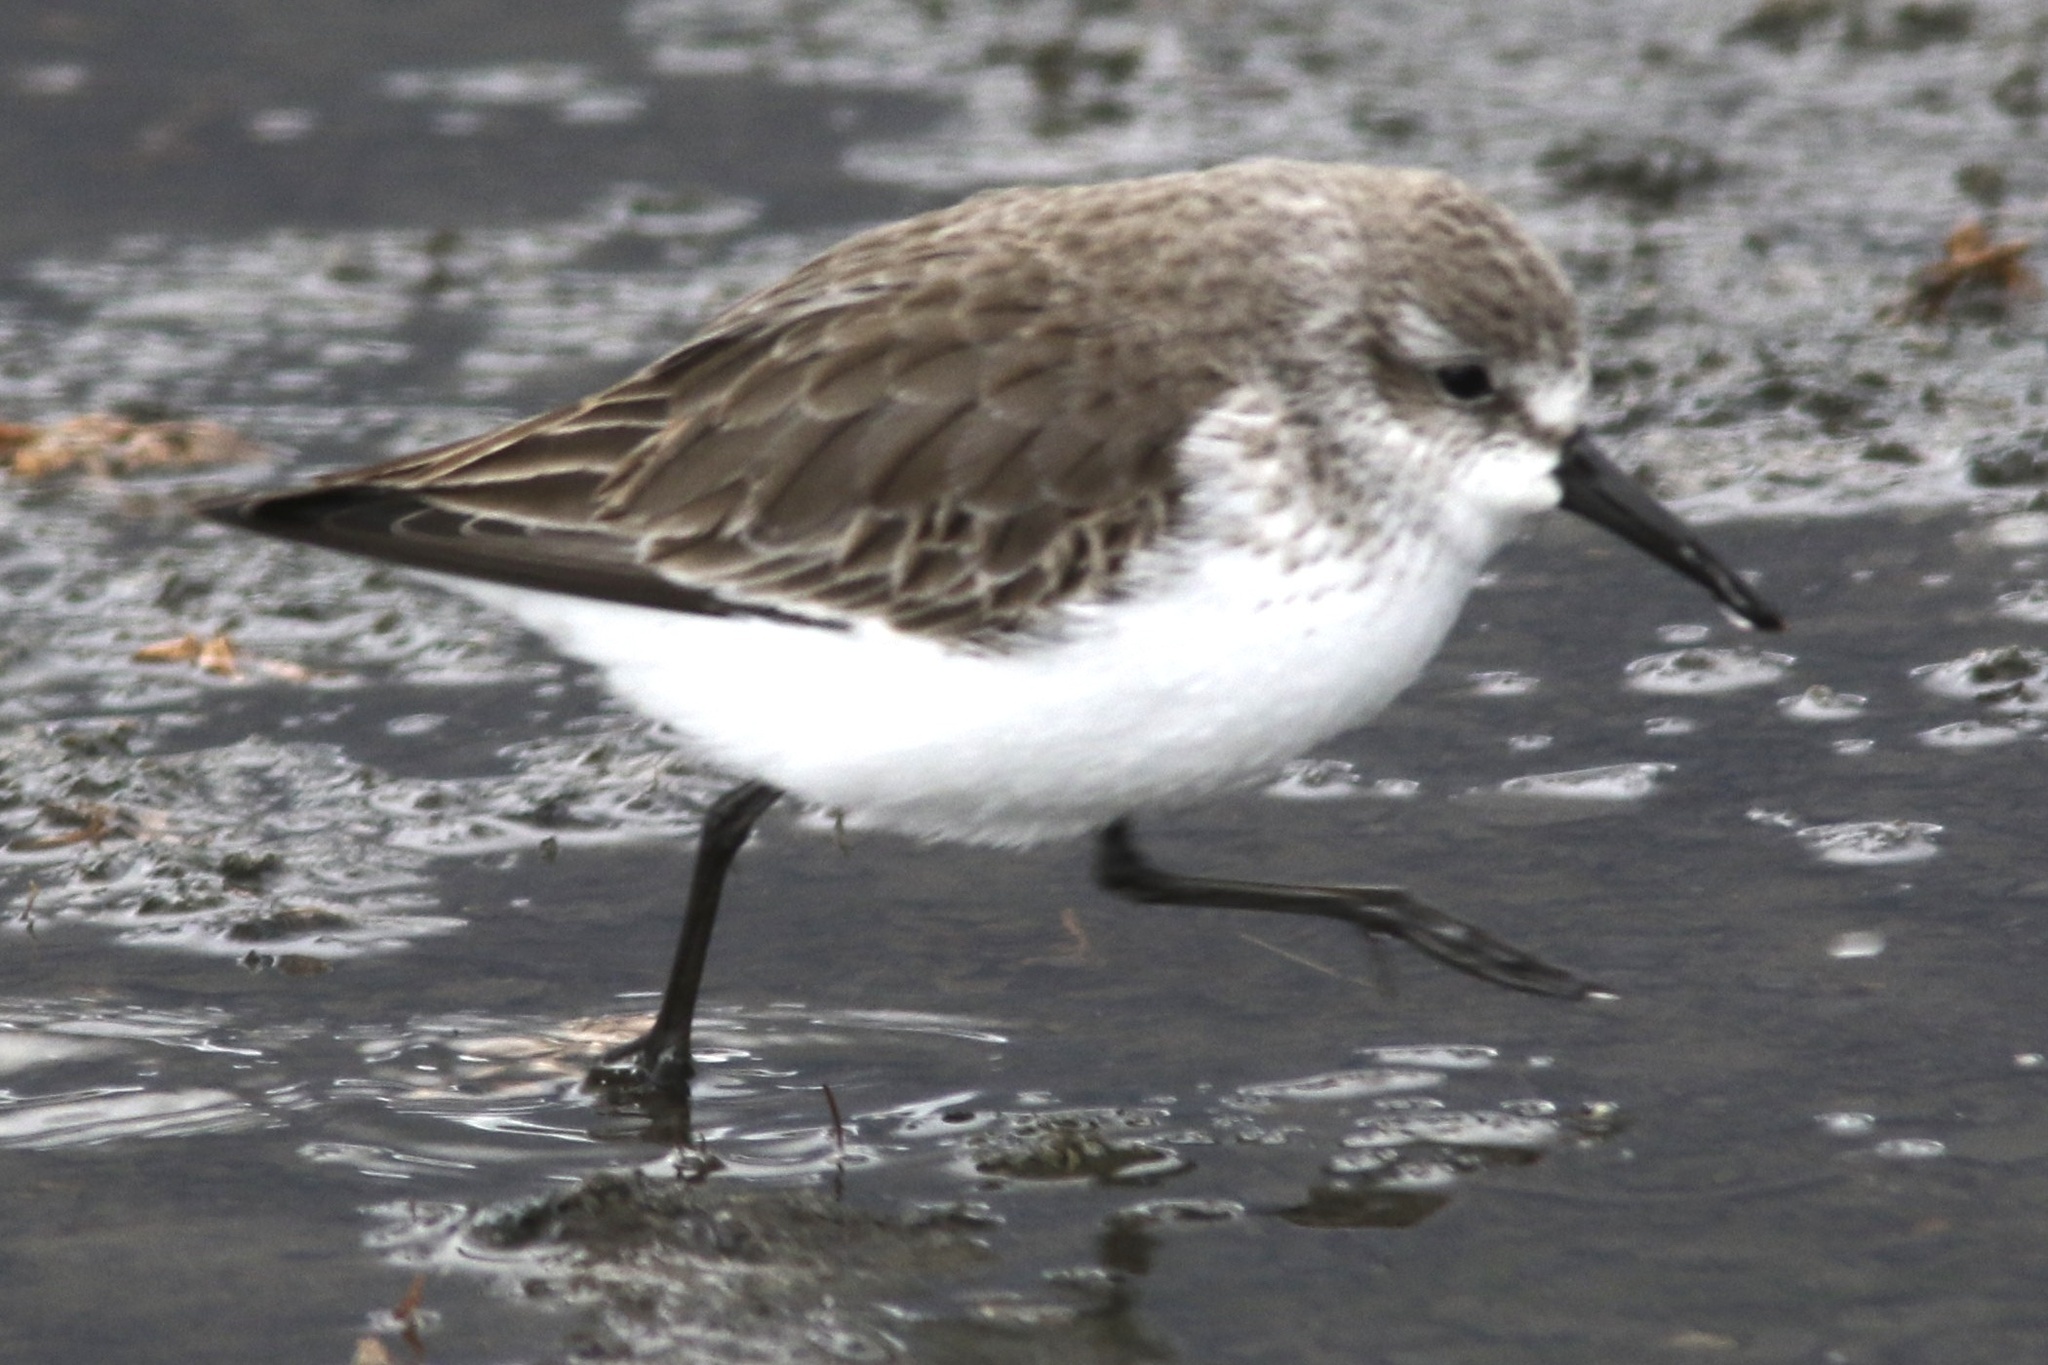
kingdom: Animalia
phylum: Chordata
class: Aves
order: Charadriiformes
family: Scolopacidae
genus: Calidris
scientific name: Calidris mauri
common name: Western sandpiper
